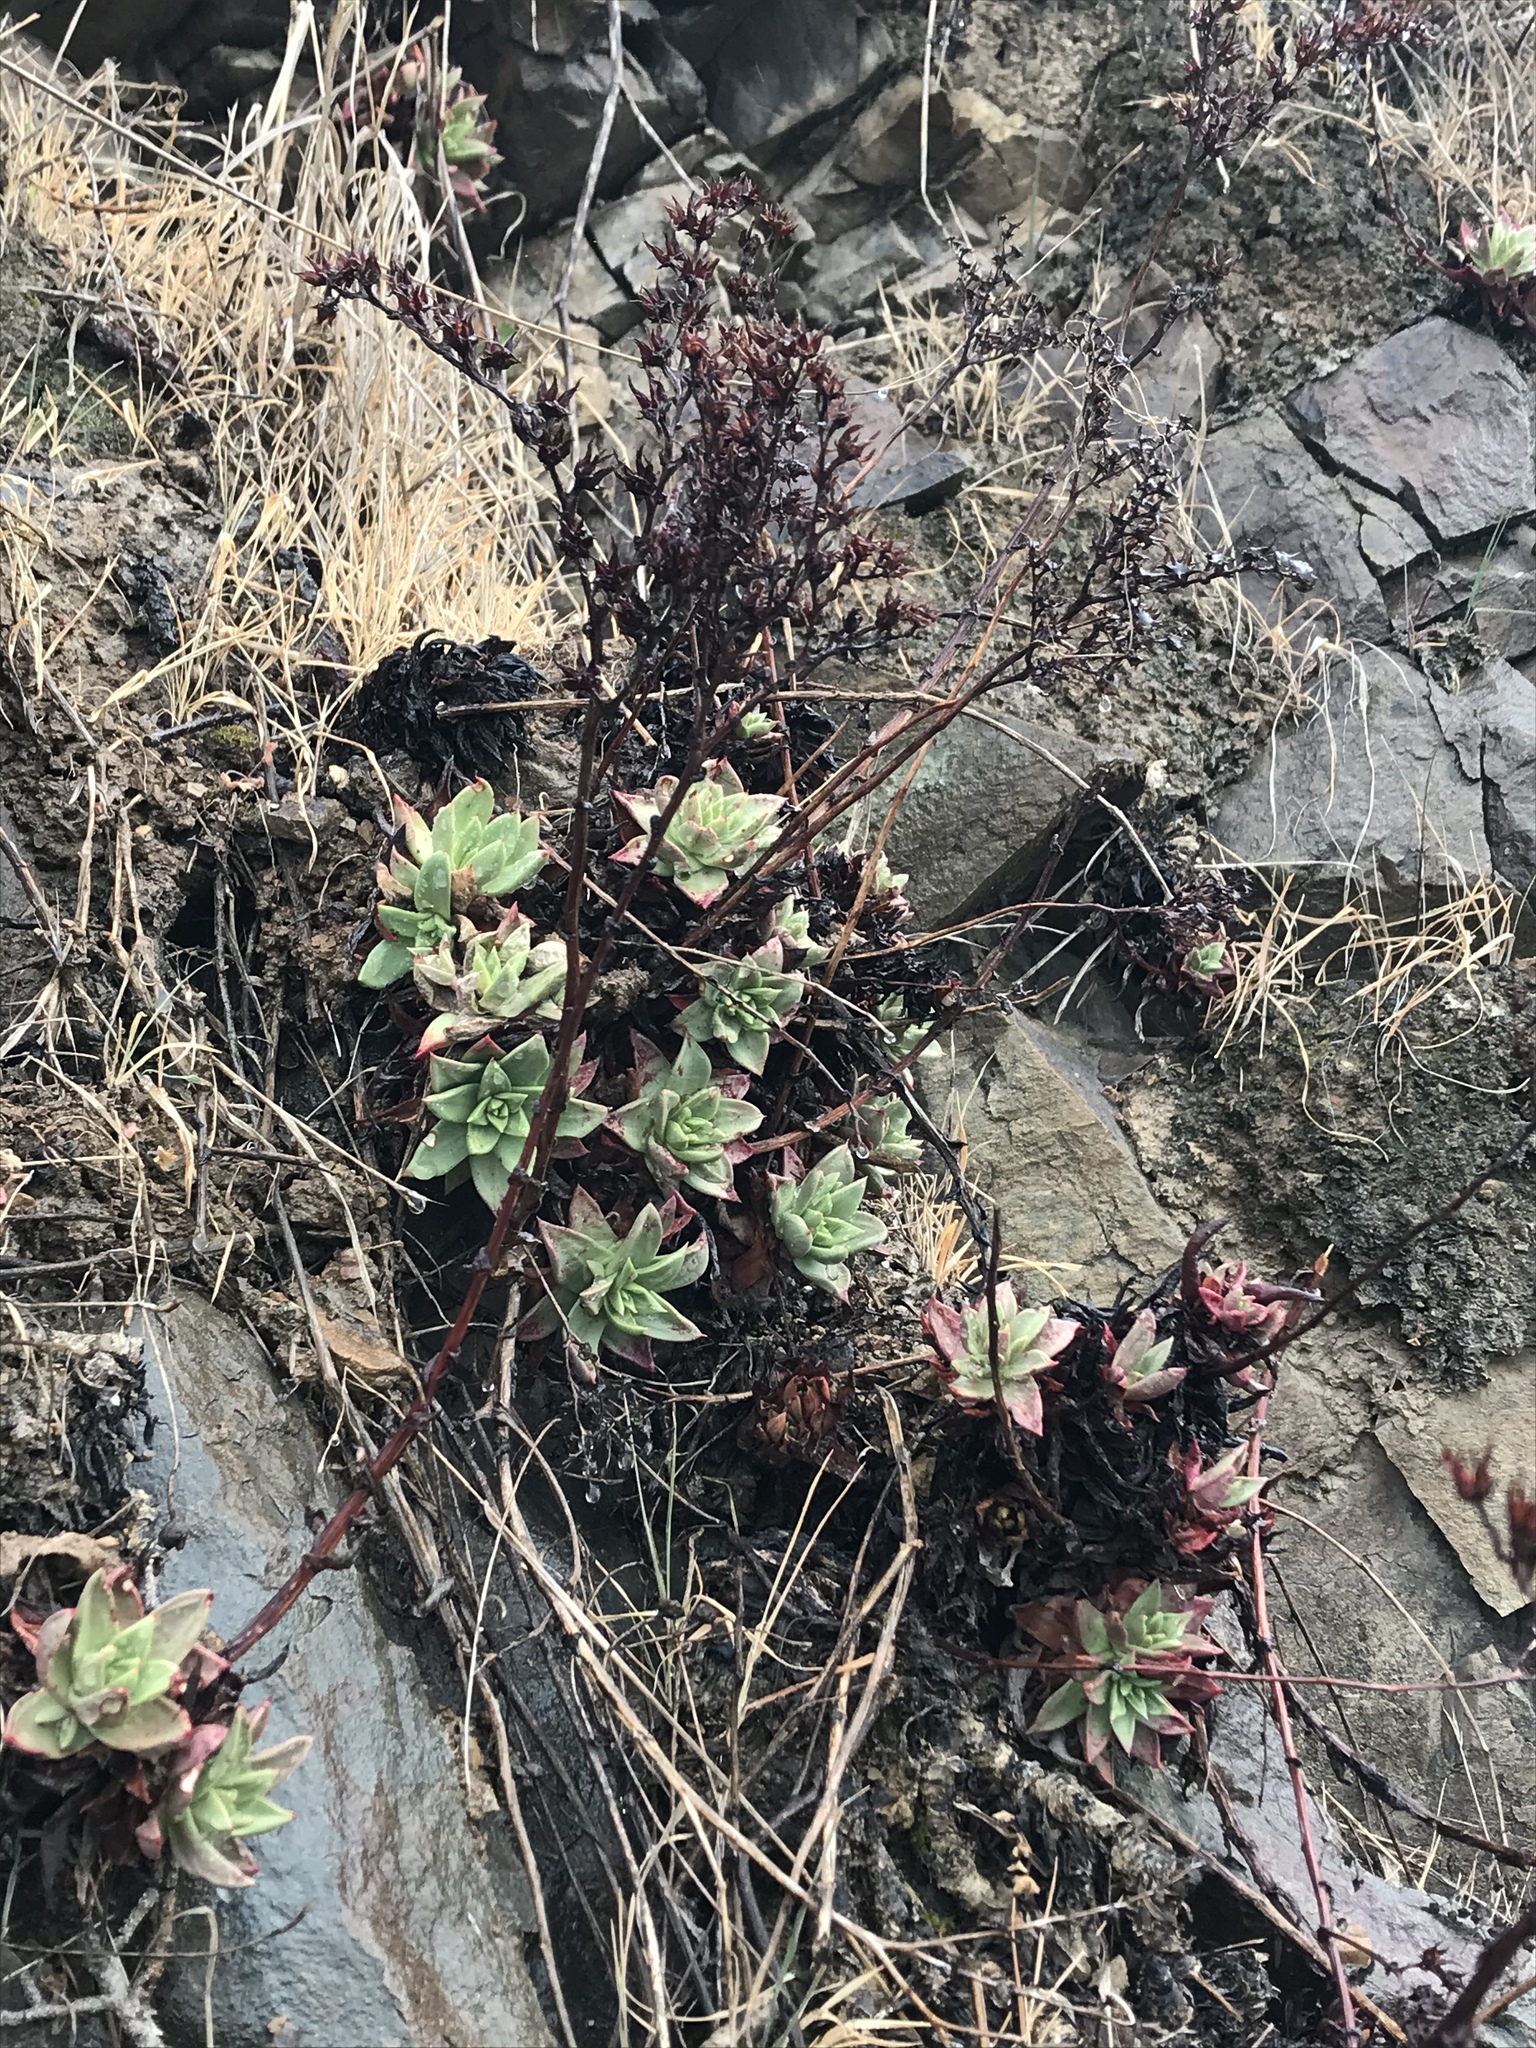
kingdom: Plantae
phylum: Tracheophyta
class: Magnoliopsida
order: Saxifragales
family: Crassulaceae
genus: Dudleya
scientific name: Dudleya farinosa
